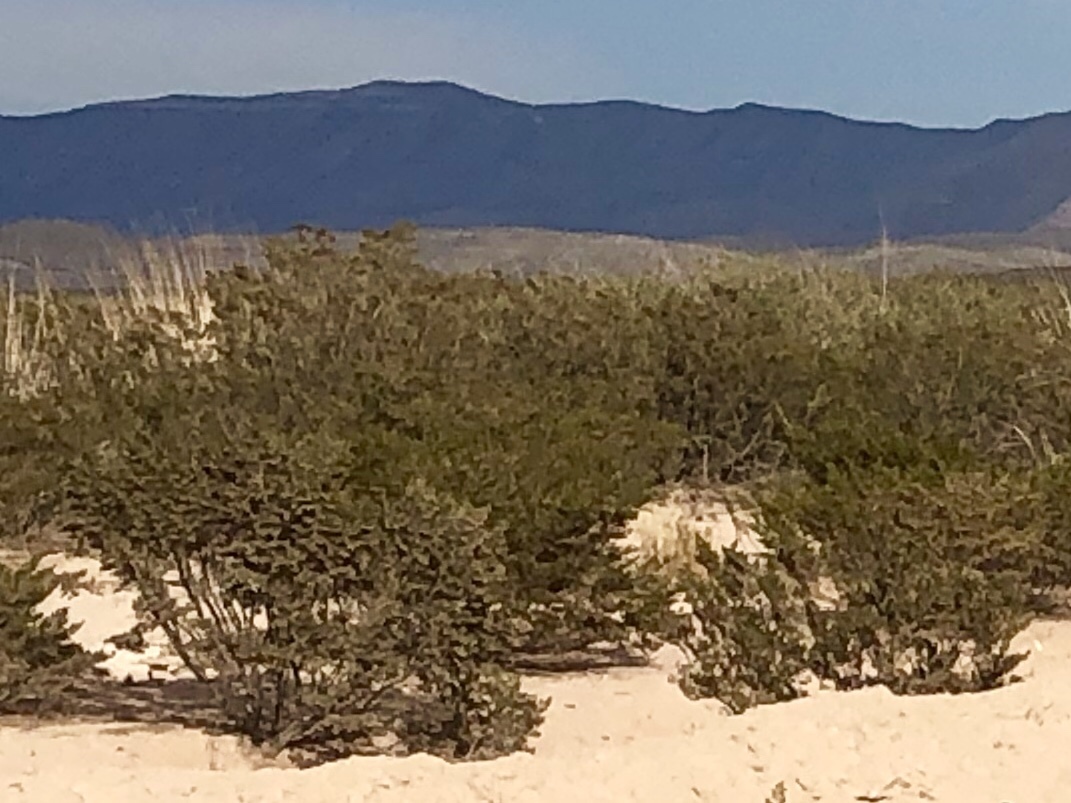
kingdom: Plantae
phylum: Tracheophyta
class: Magnoliopsida
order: Zygophyllales
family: Zygophyllaceae
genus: Larrea
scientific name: Larrea tridentata
